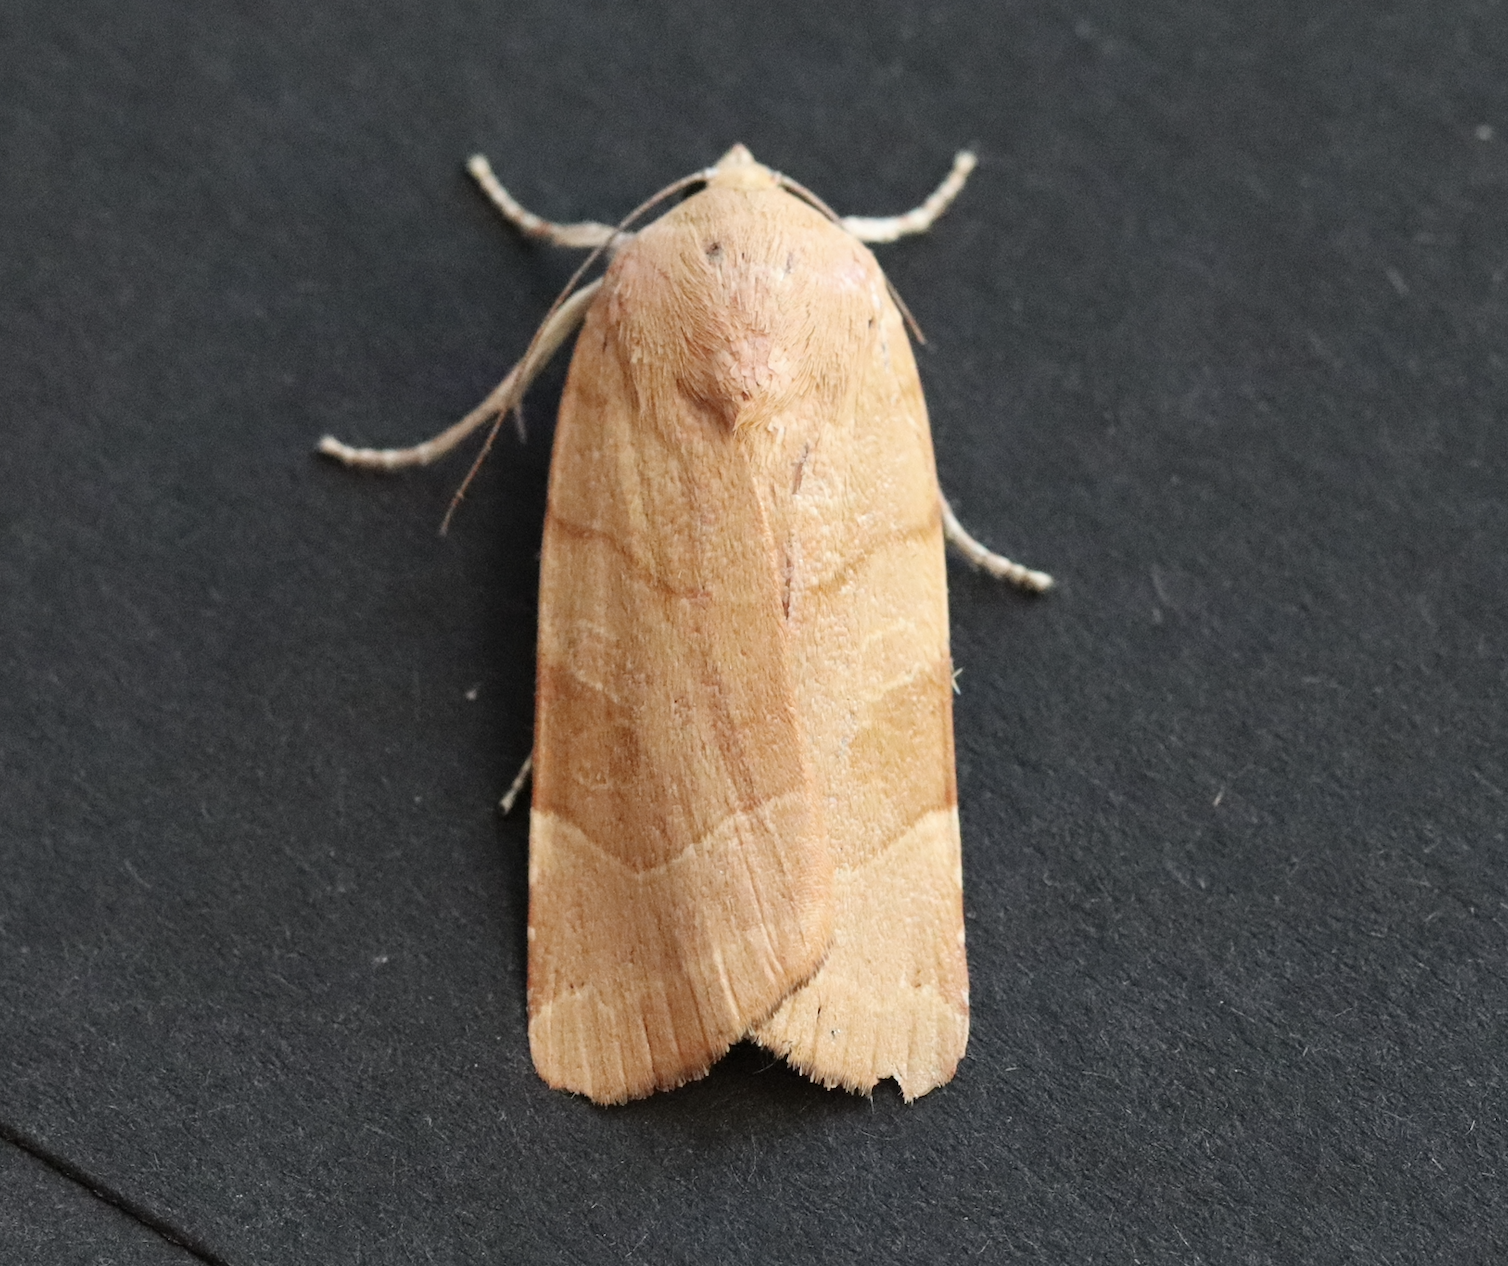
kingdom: Animalia
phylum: Arthropoda
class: Insecta
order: Lepidoptera
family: Noctuidae
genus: Noctua
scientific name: Noctua fimbriata
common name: Broad-bordered yellow underwing
